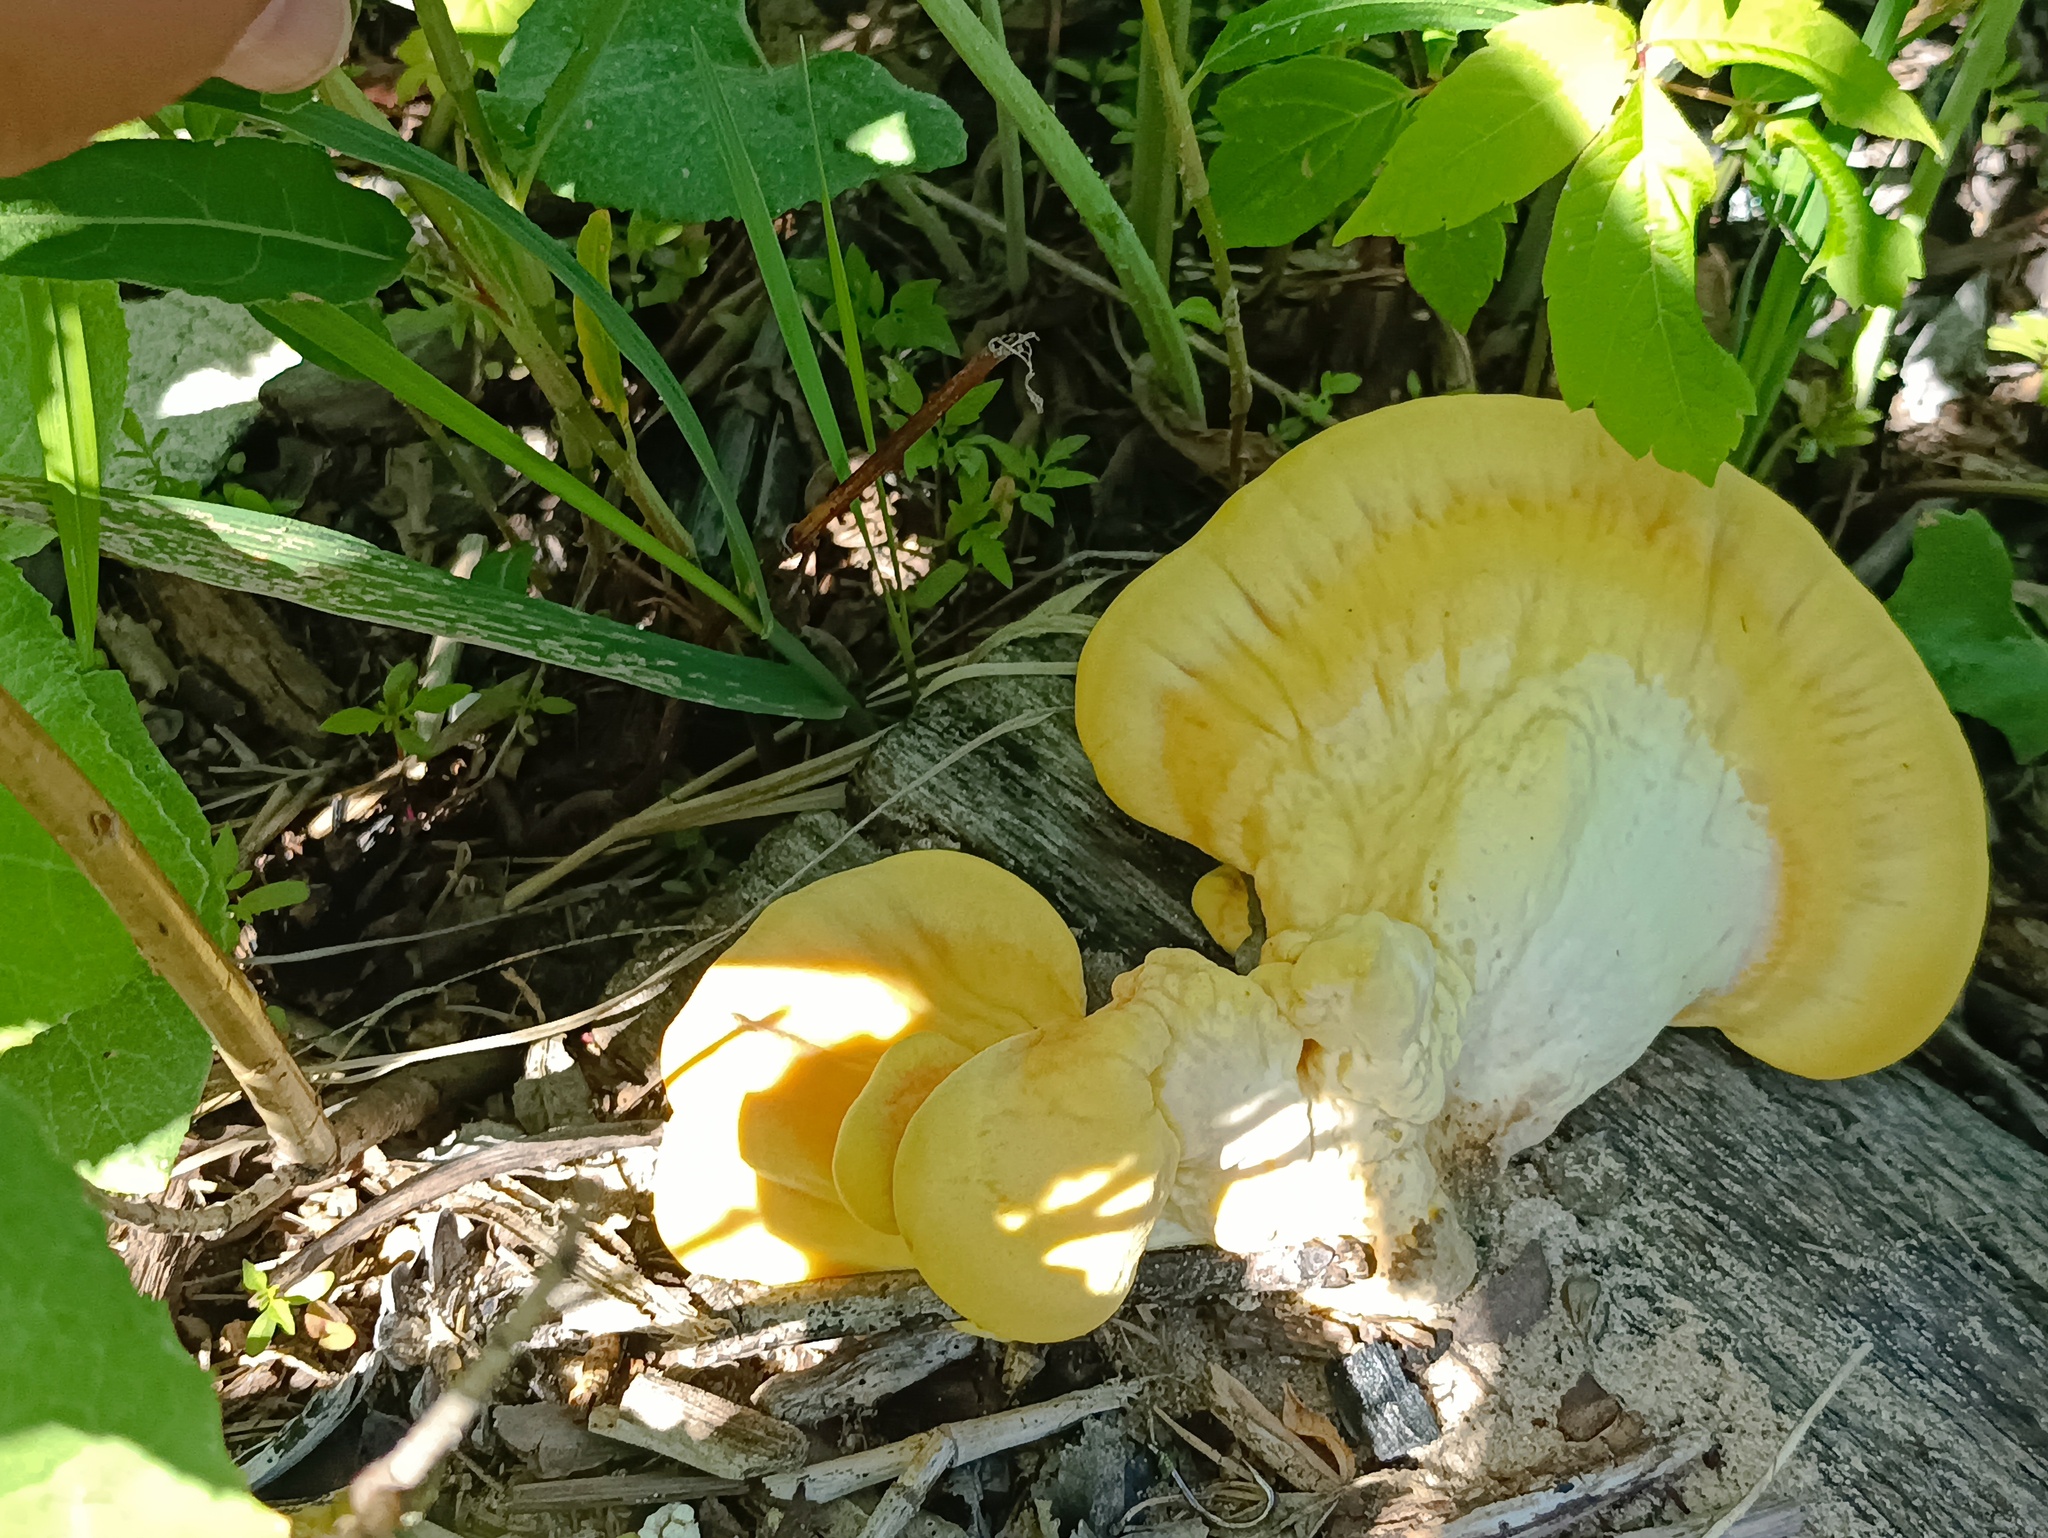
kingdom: Fungi
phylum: Basidiomycota
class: Agaricomycetes
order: Polyporales
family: Laetiporaceae
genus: Laetiporus
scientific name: Laetiporus sulphureus
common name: Chicken of the woods
